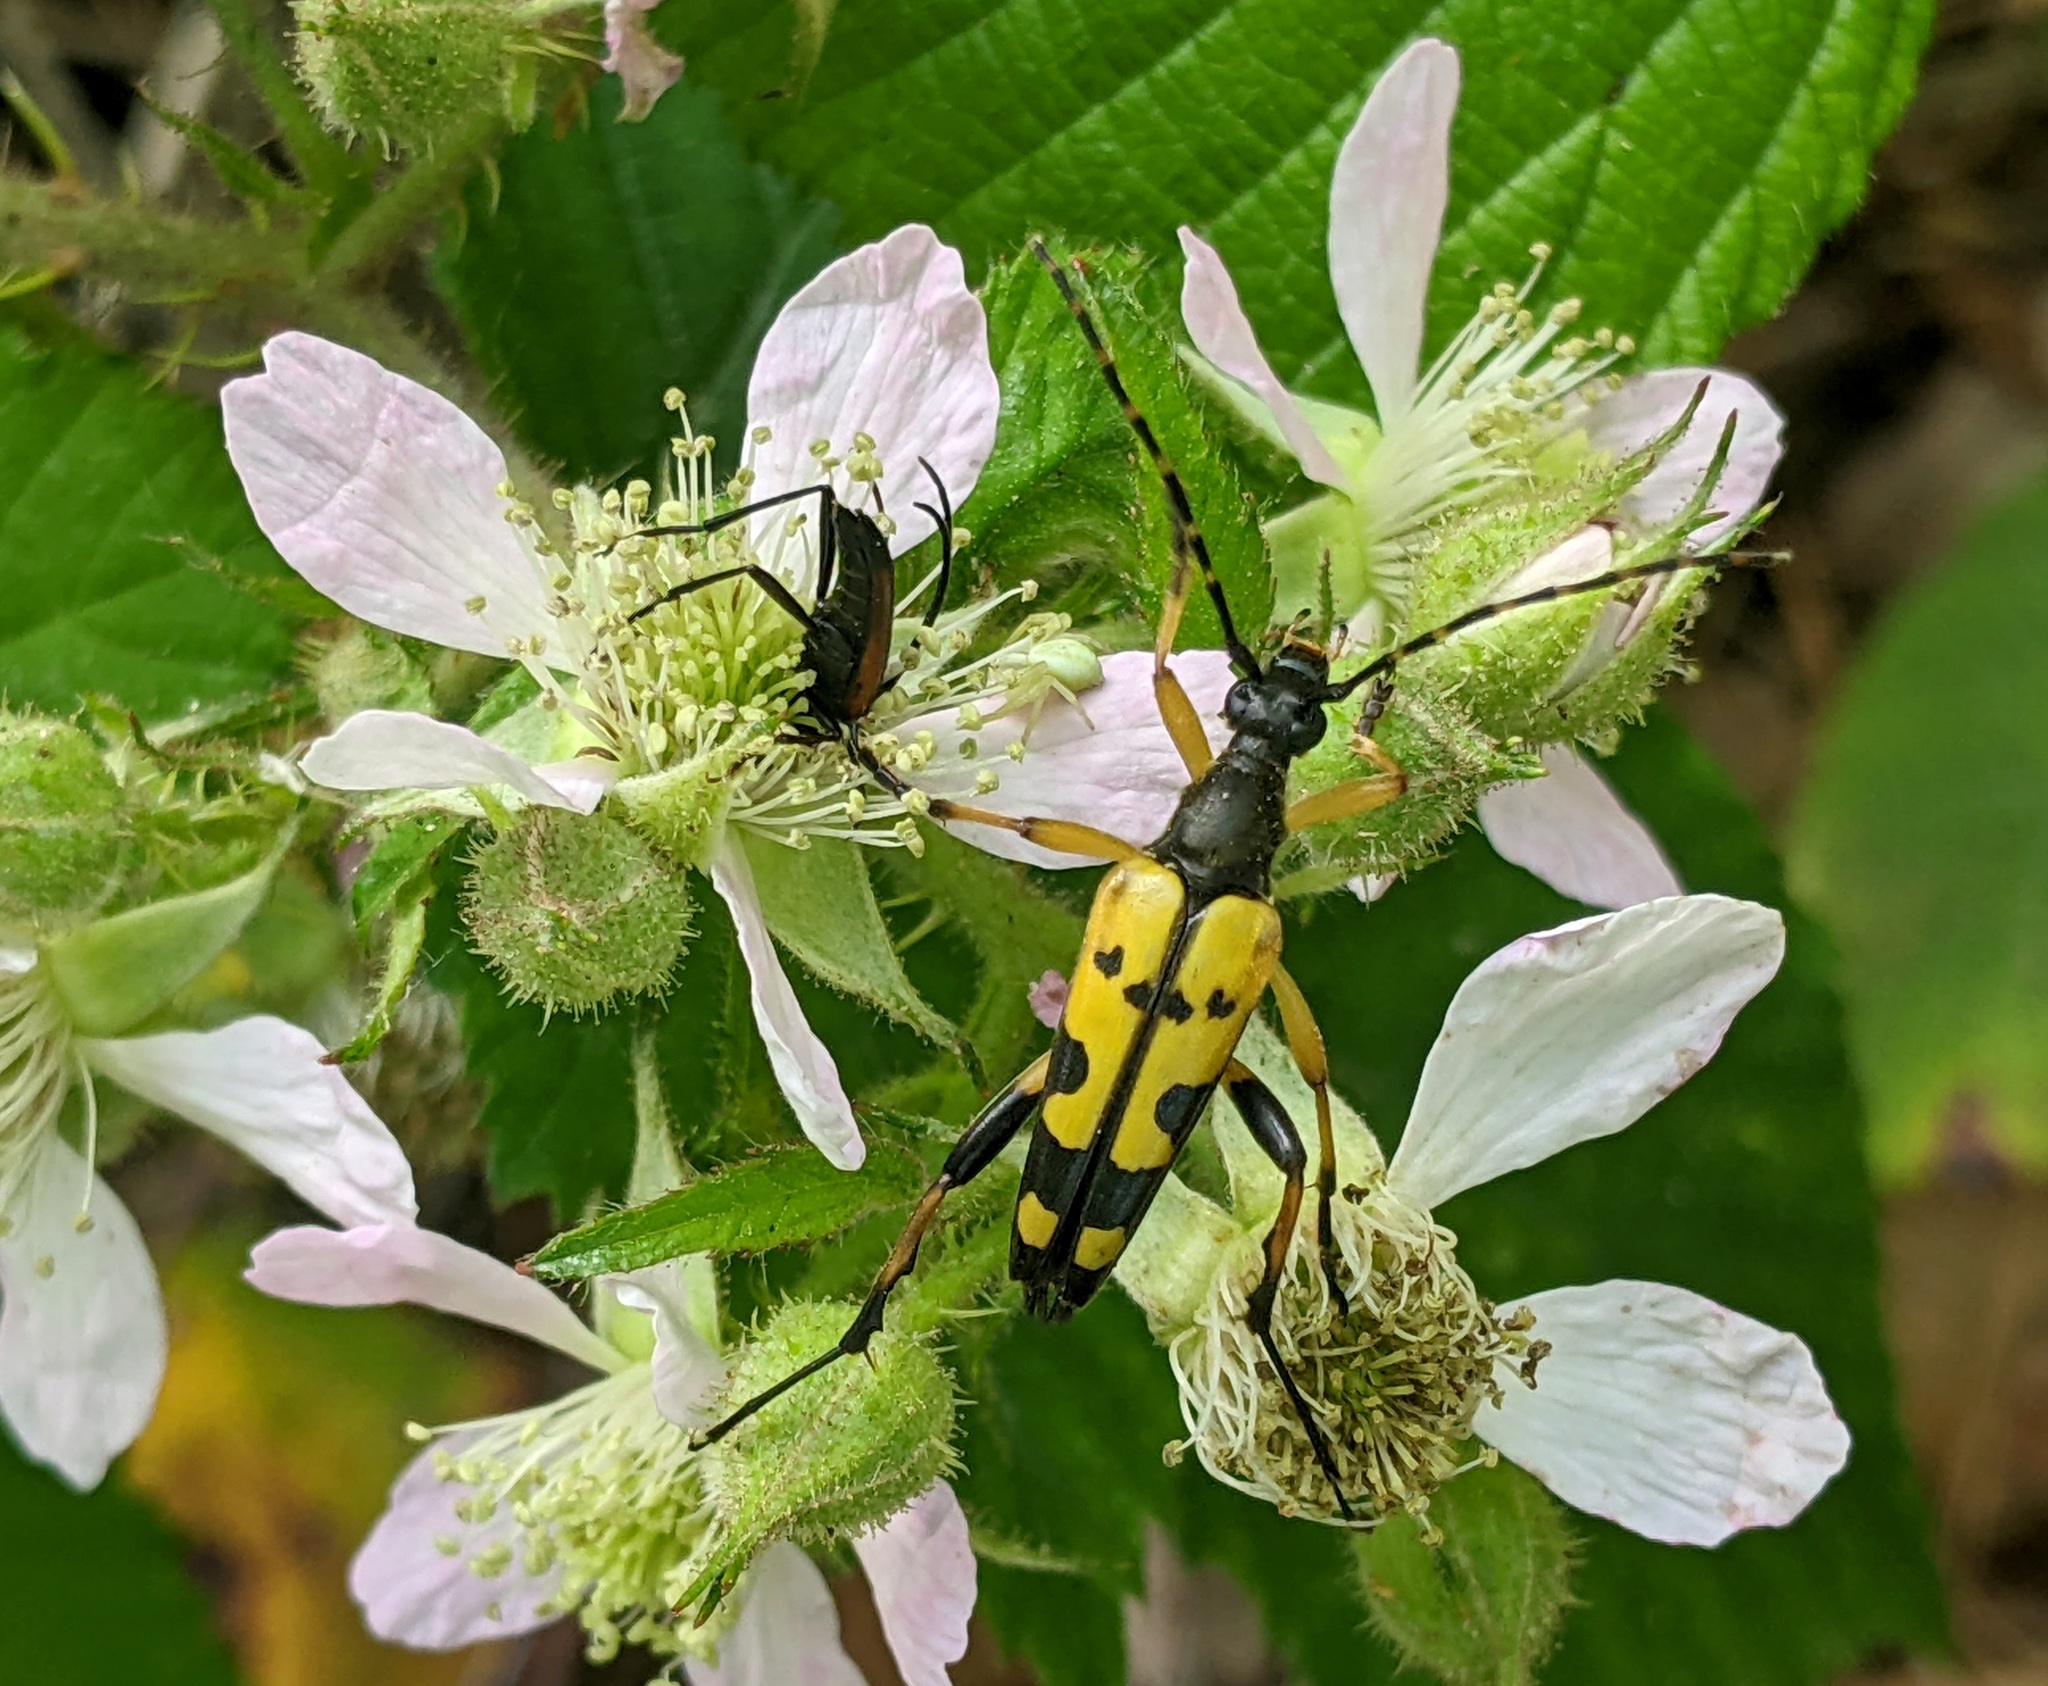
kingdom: Animalia
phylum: Arthropoda
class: Insecta
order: Coleoptera
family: Cerambycidae
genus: Rutpela
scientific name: Rutpela maculata
